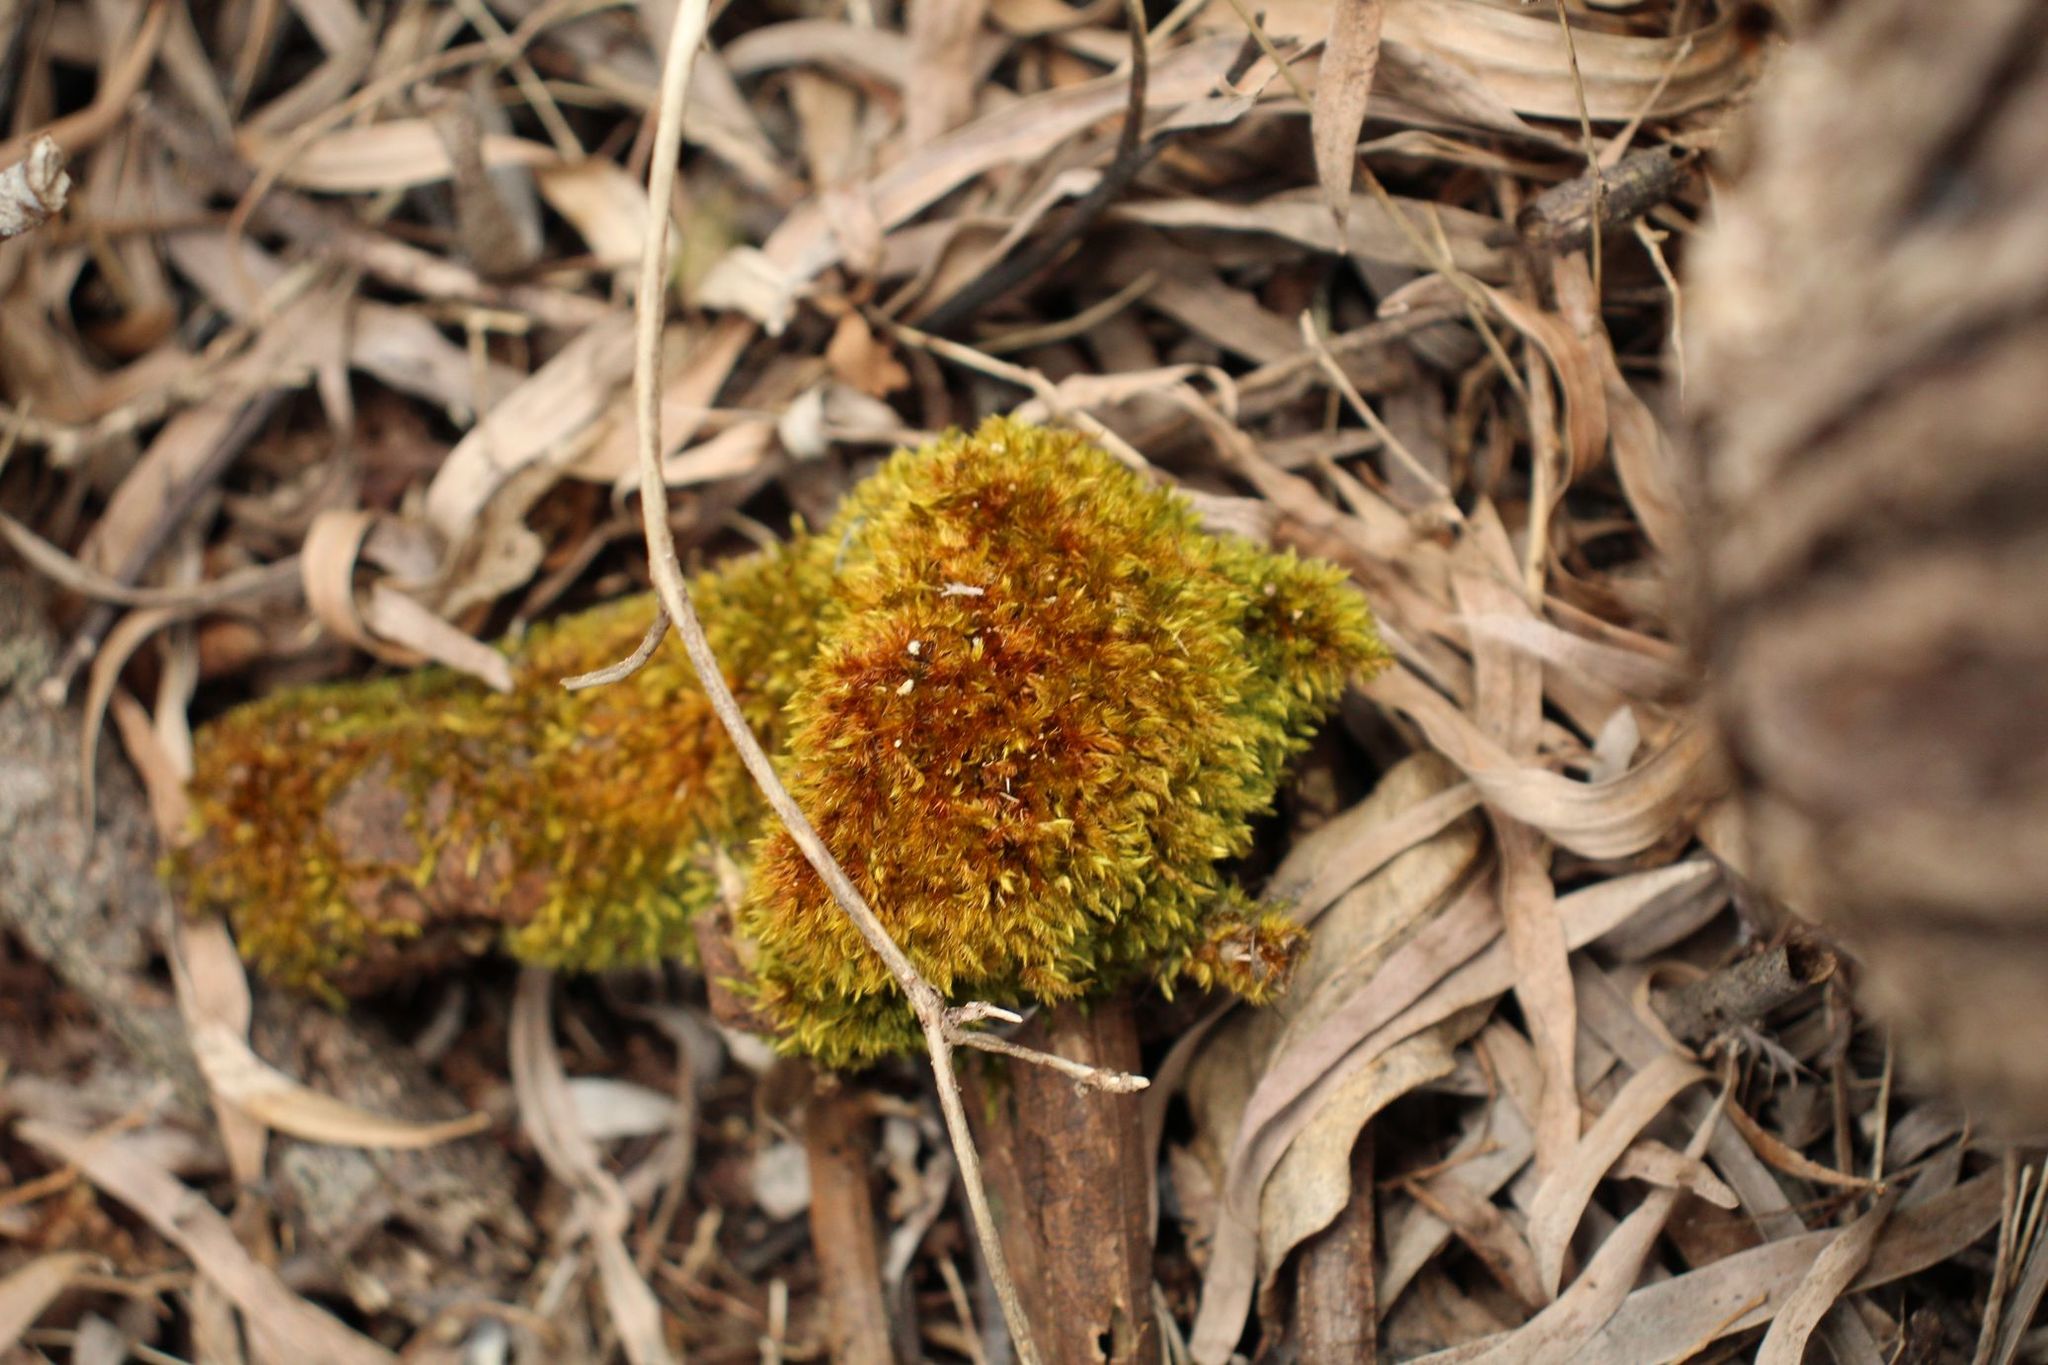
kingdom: Plantae
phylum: Bryophyta
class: Bryopsida
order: Hypnales
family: Sematophyllaceae
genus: Sematophyllum
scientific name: Sematophyllum homomallum
